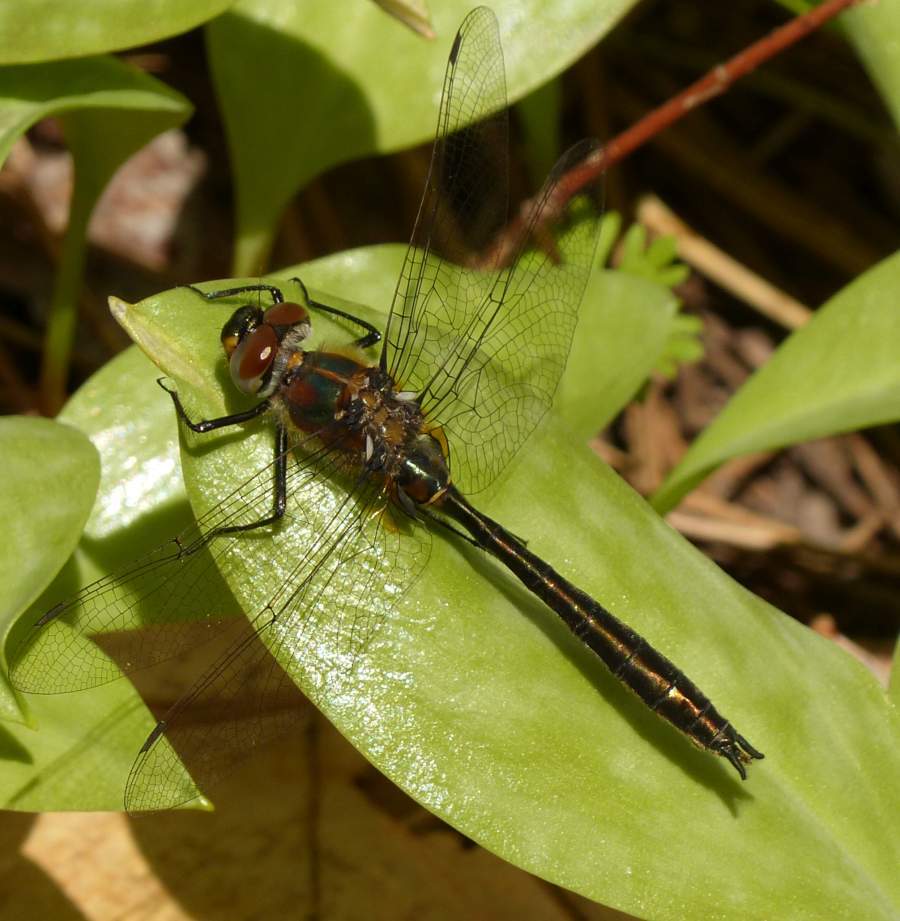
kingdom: Animalia
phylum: Arthropoda
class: Insecta
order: Odonata
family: Corduliidae
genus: Cordulia
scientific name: Cordulia shurtleffii
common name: American emerald
